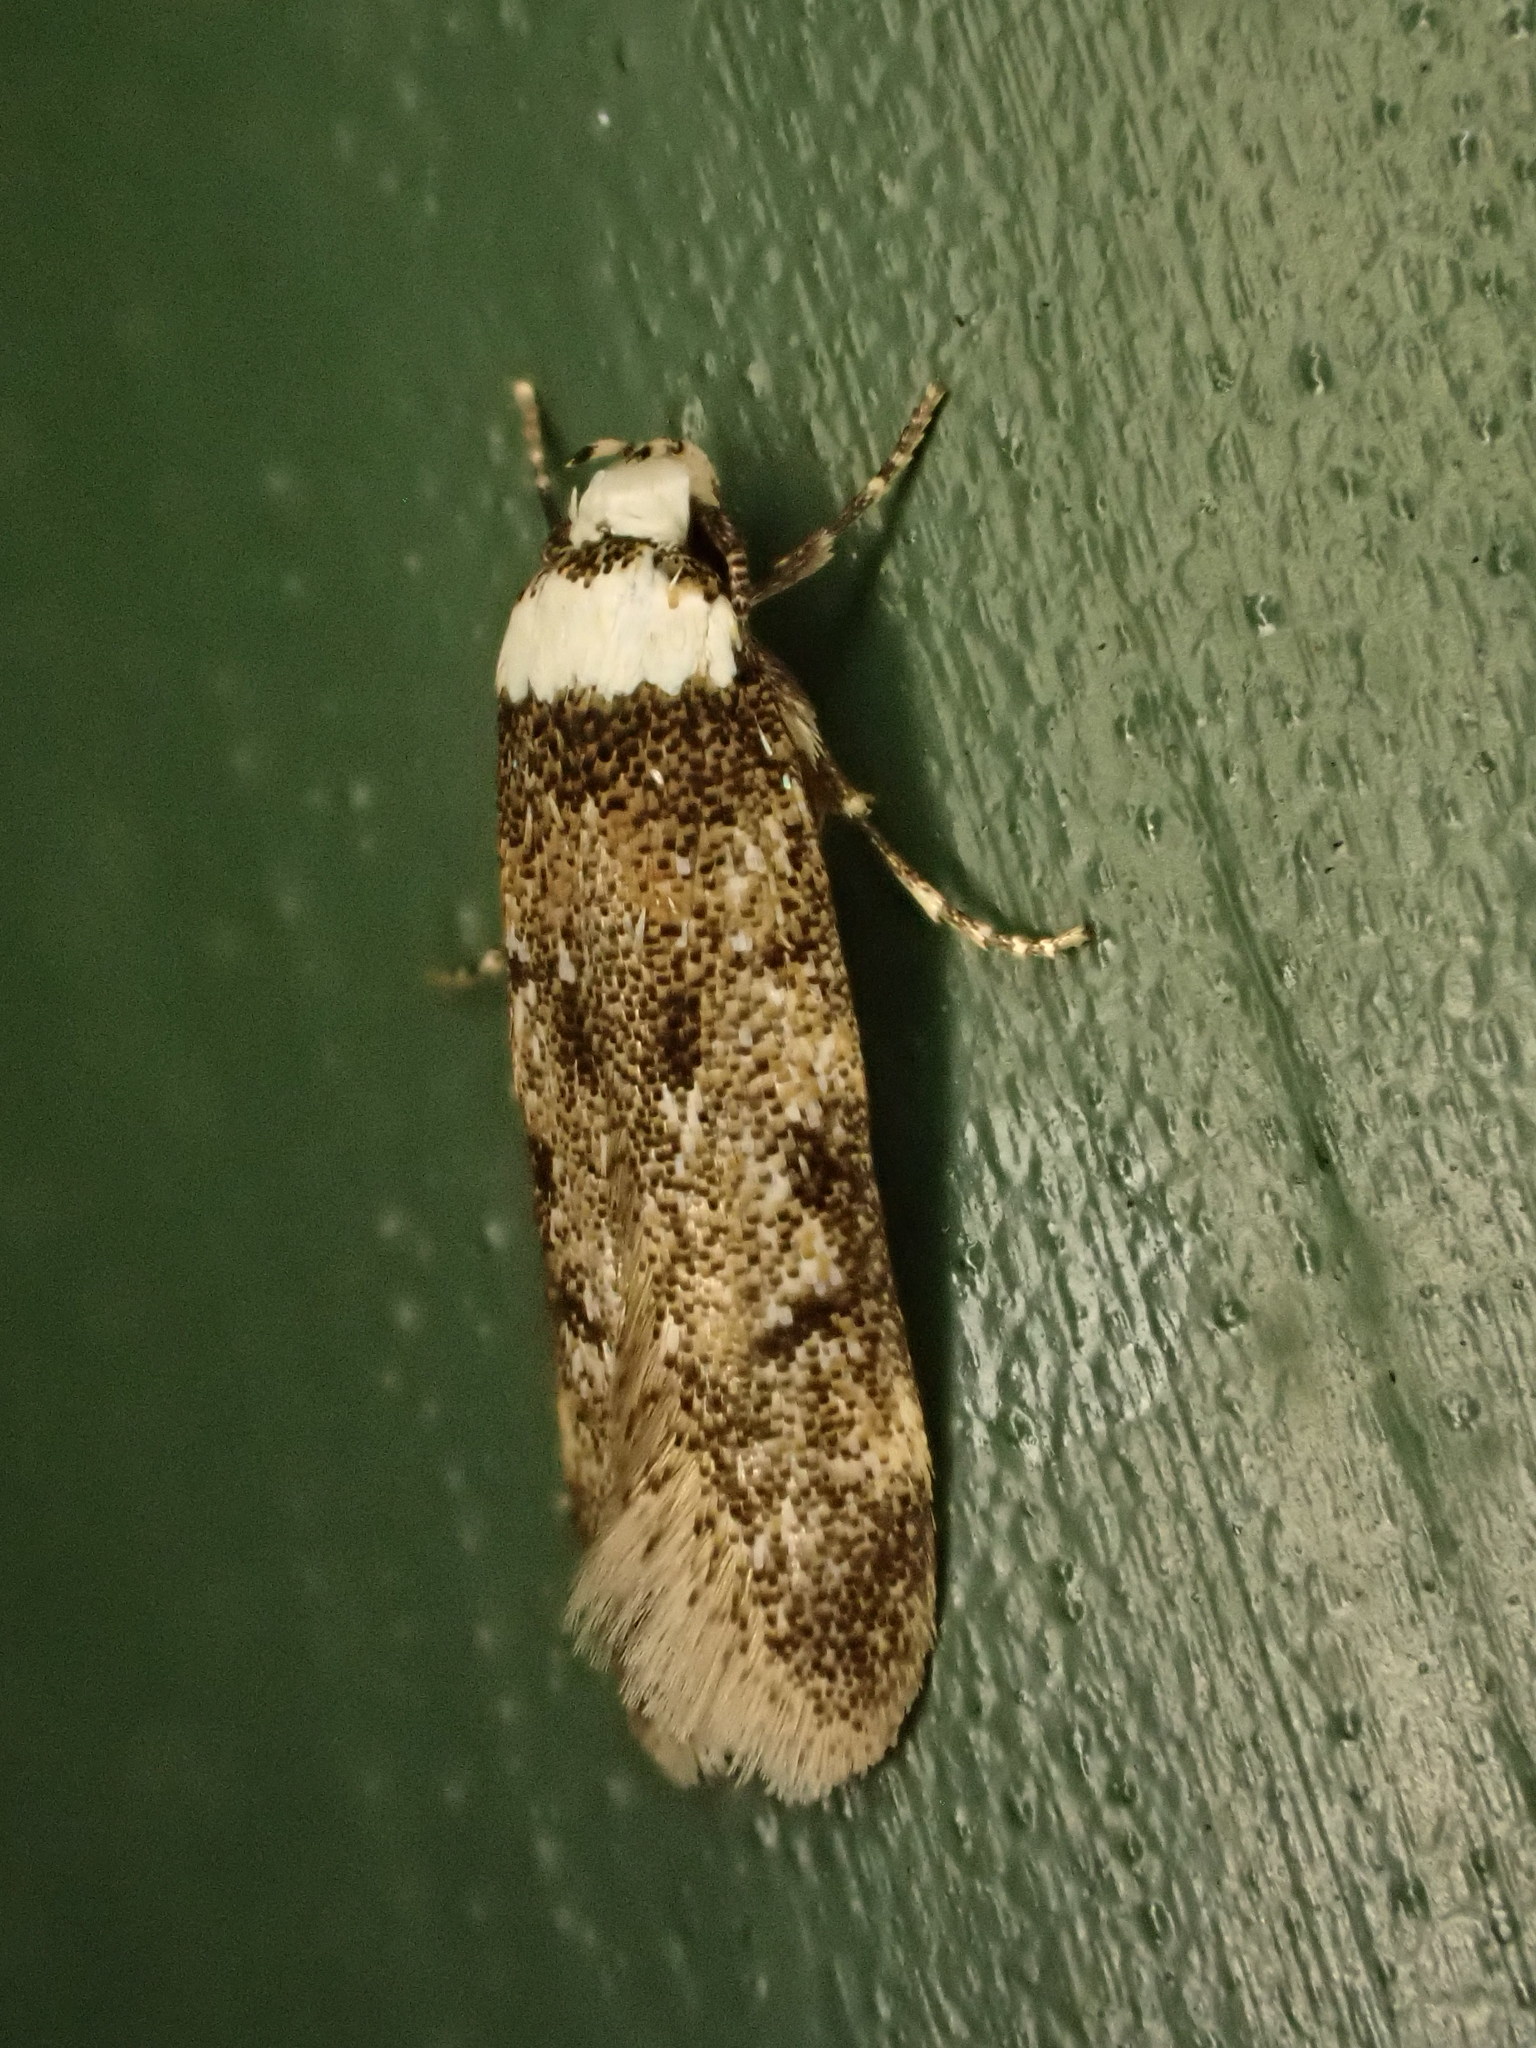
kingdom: Animalia
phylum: Arthropoda
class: Insecta
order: Lepidoptera
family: Oecophoridae
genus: Endrosis
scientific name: Endrosis sarcitrella
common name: White-shouldered house moth
